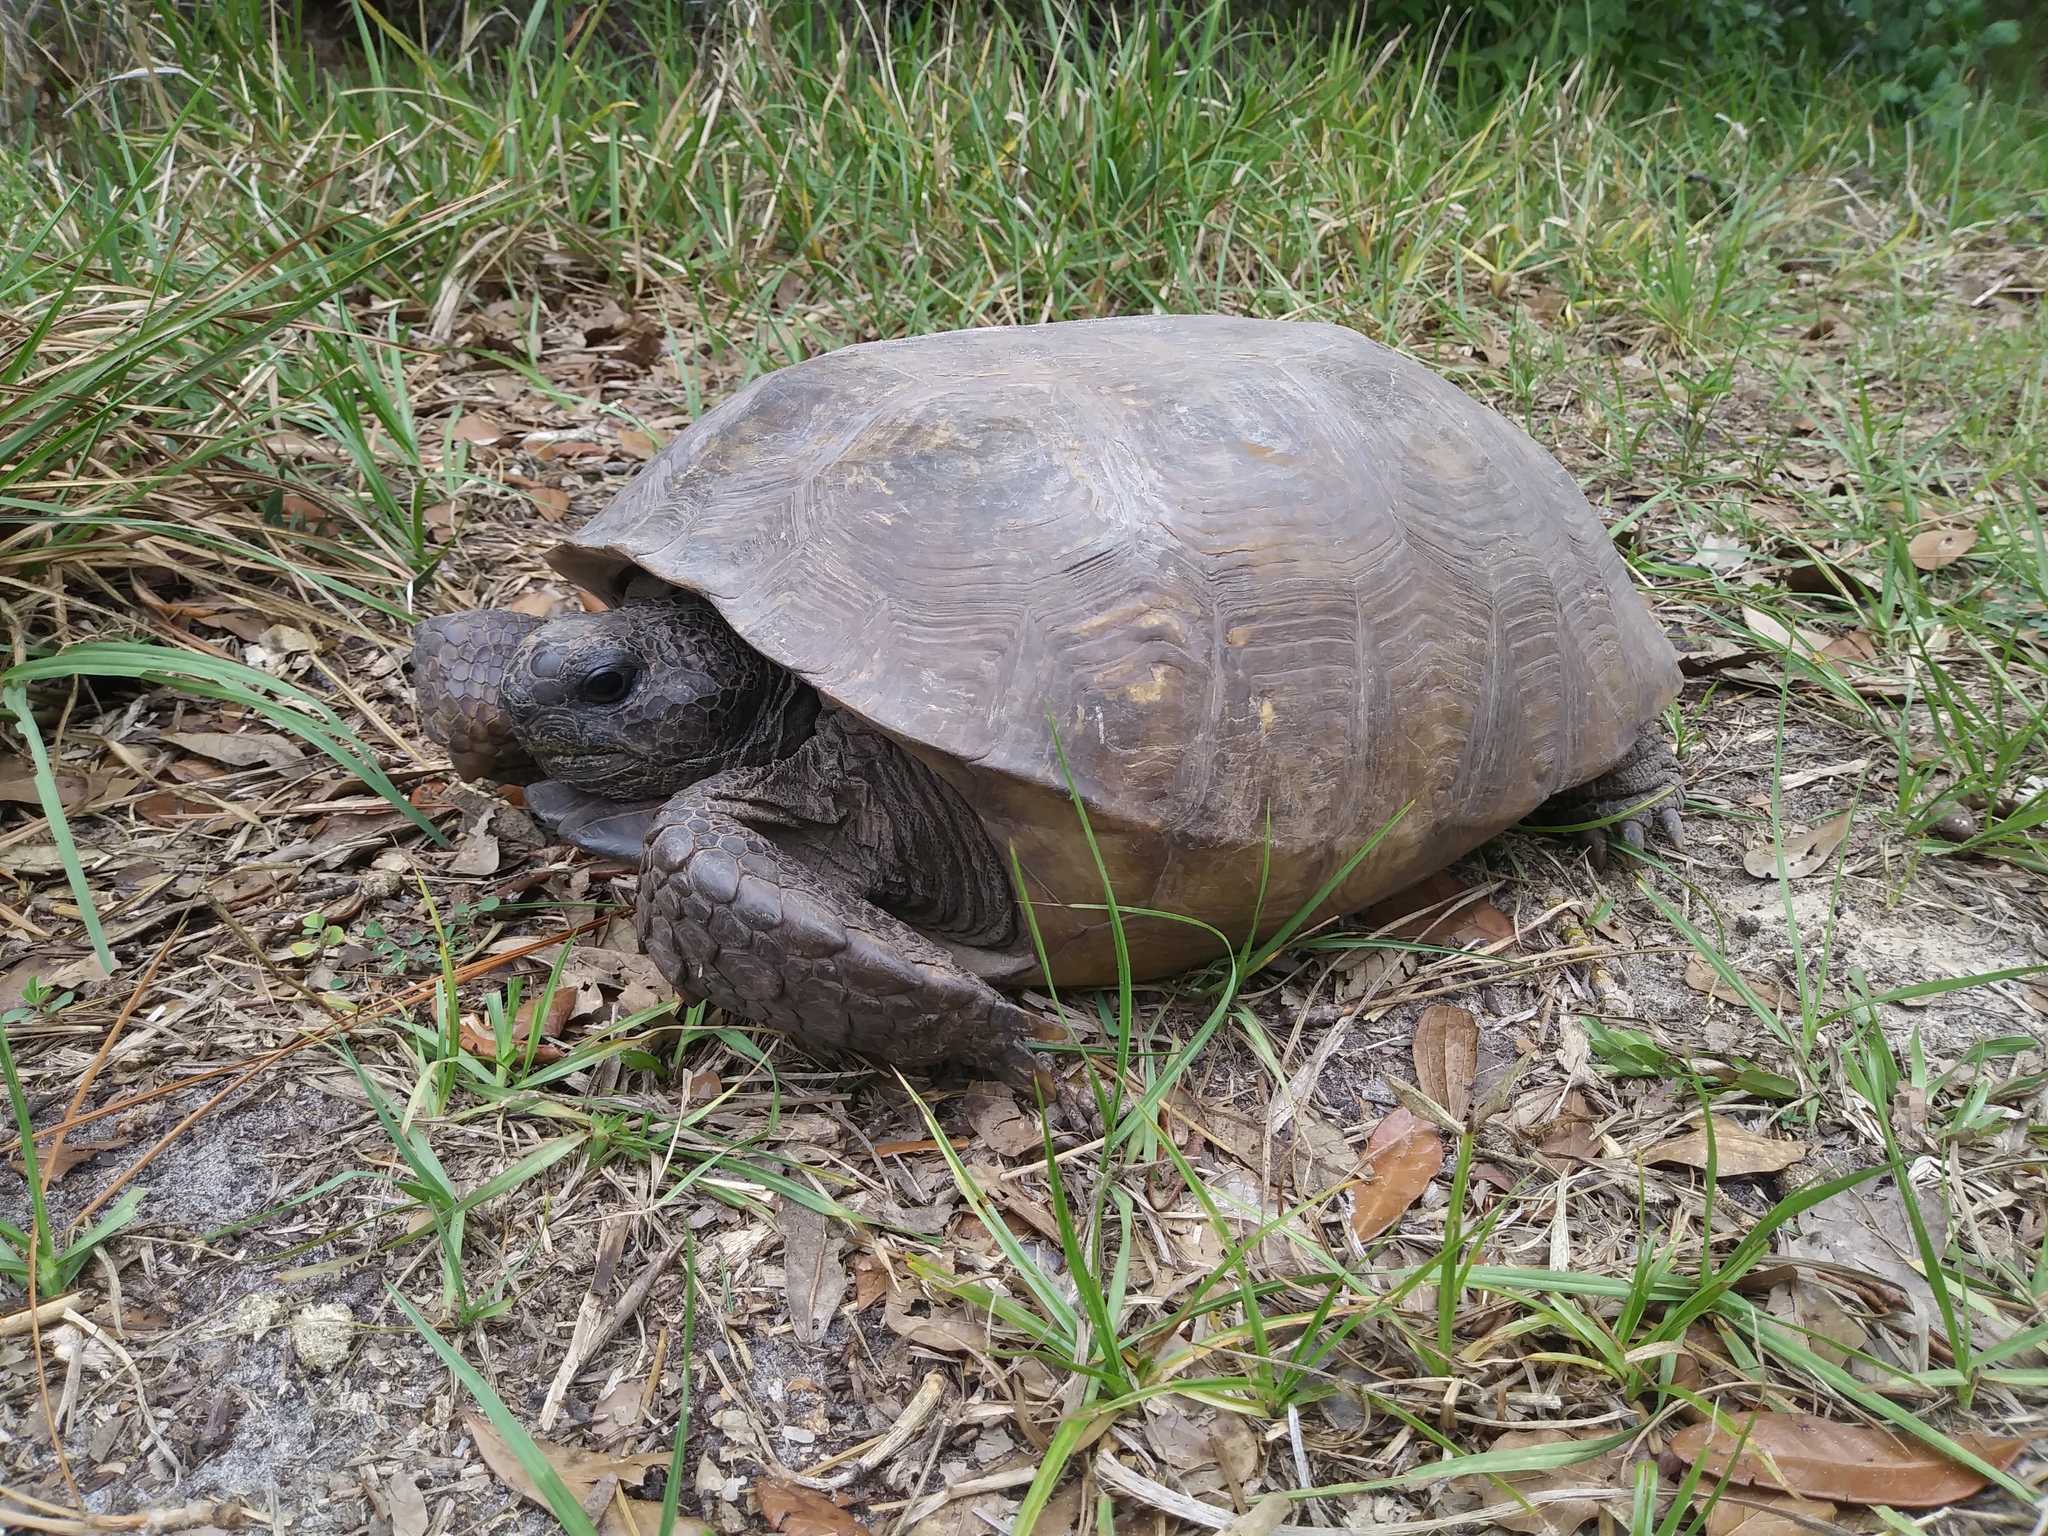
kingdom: Animalia
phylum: Chordata
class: Testudines
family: Testudinidae
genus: Gopherus
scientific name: Gopherus polyphemus
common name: Florida gopher tortoise
